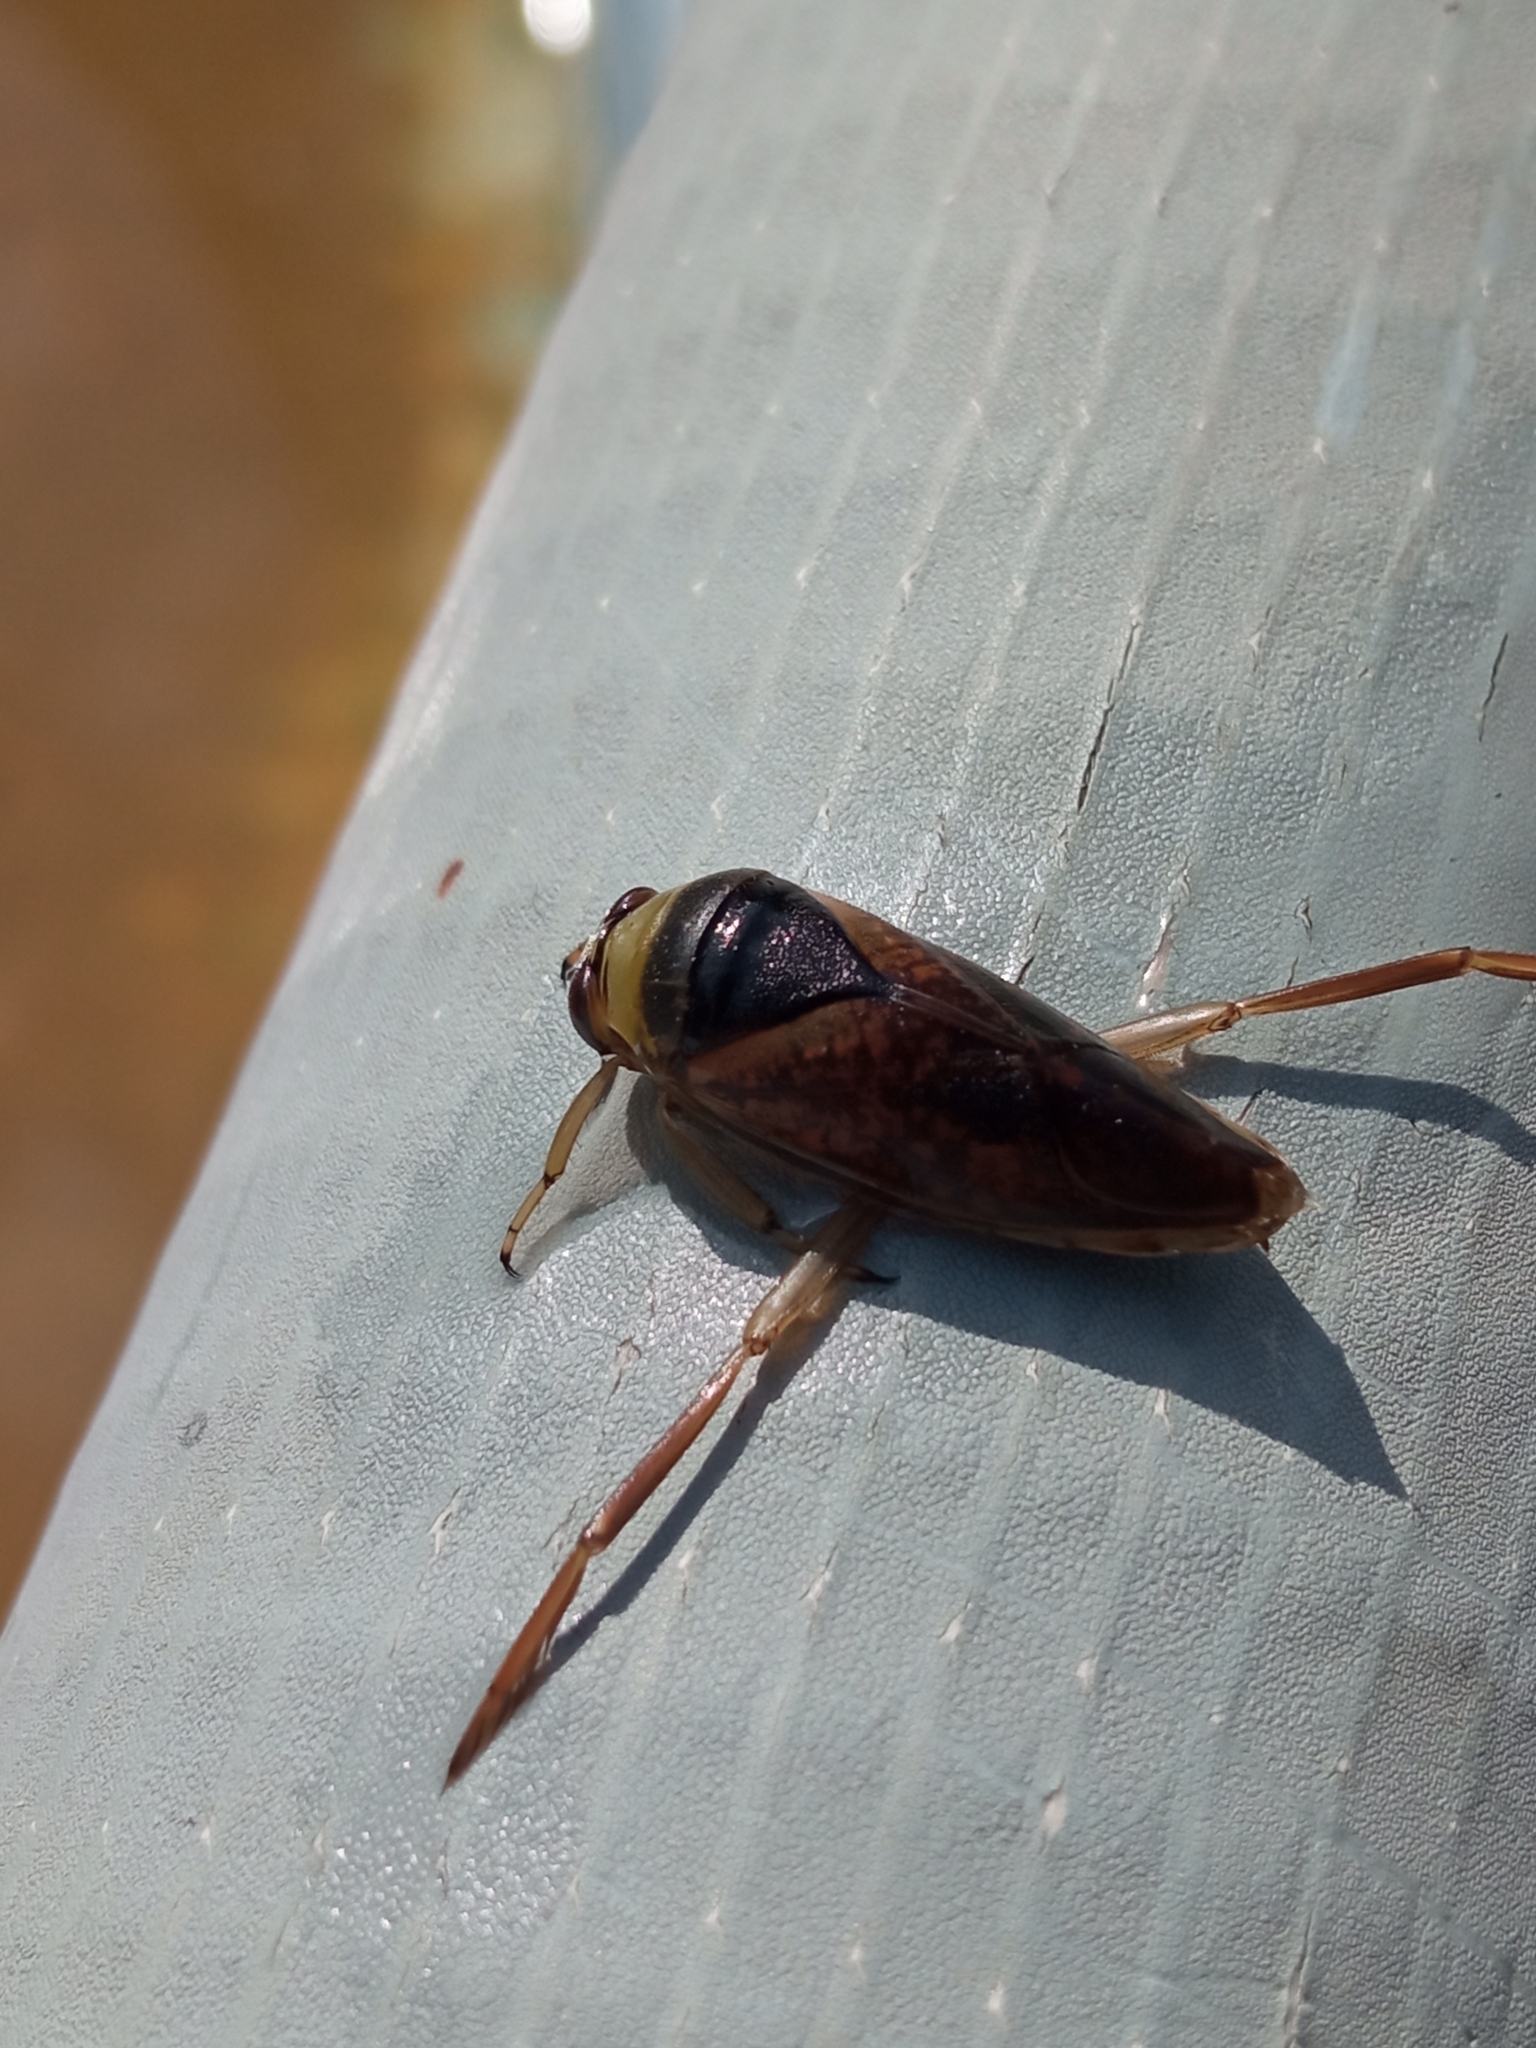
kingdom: Animalia
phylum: Arthropoda
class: Insecta
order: Hemiptera
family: Notonectidae
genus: Notonecta
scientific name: Notonecta maculata
